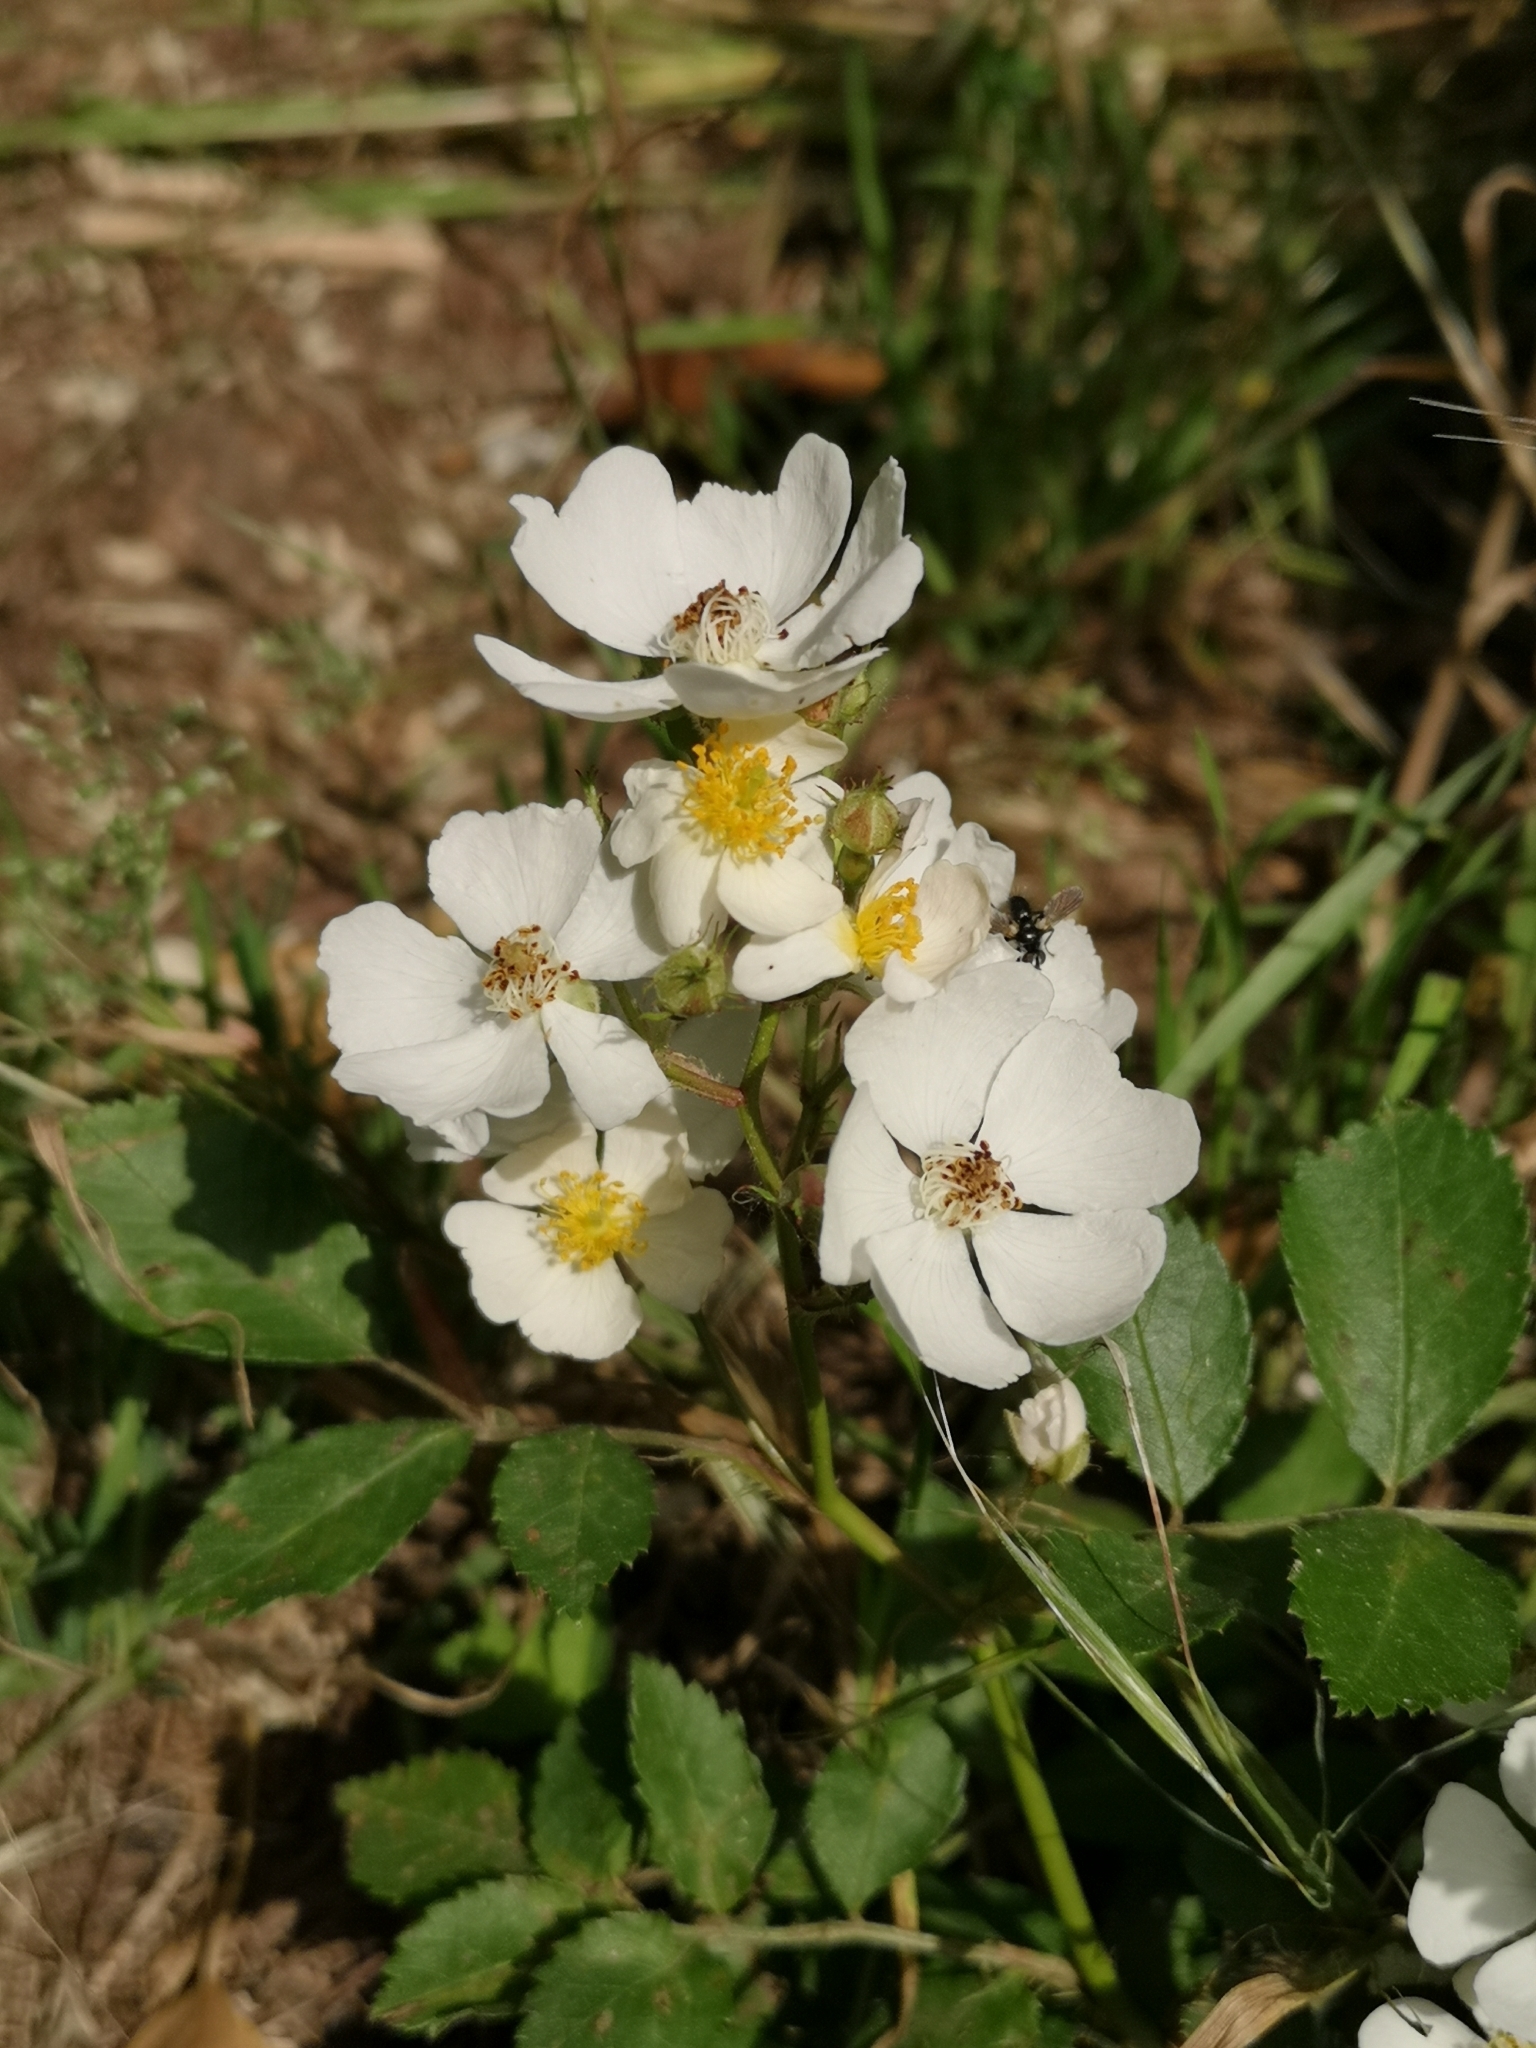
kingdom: Plantae
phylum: Tracheophyta
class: Magnoliopsida
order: Rosales
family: Rosaceae
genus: Rosa
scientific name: Rosa multiflora
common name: Multiflora rose
